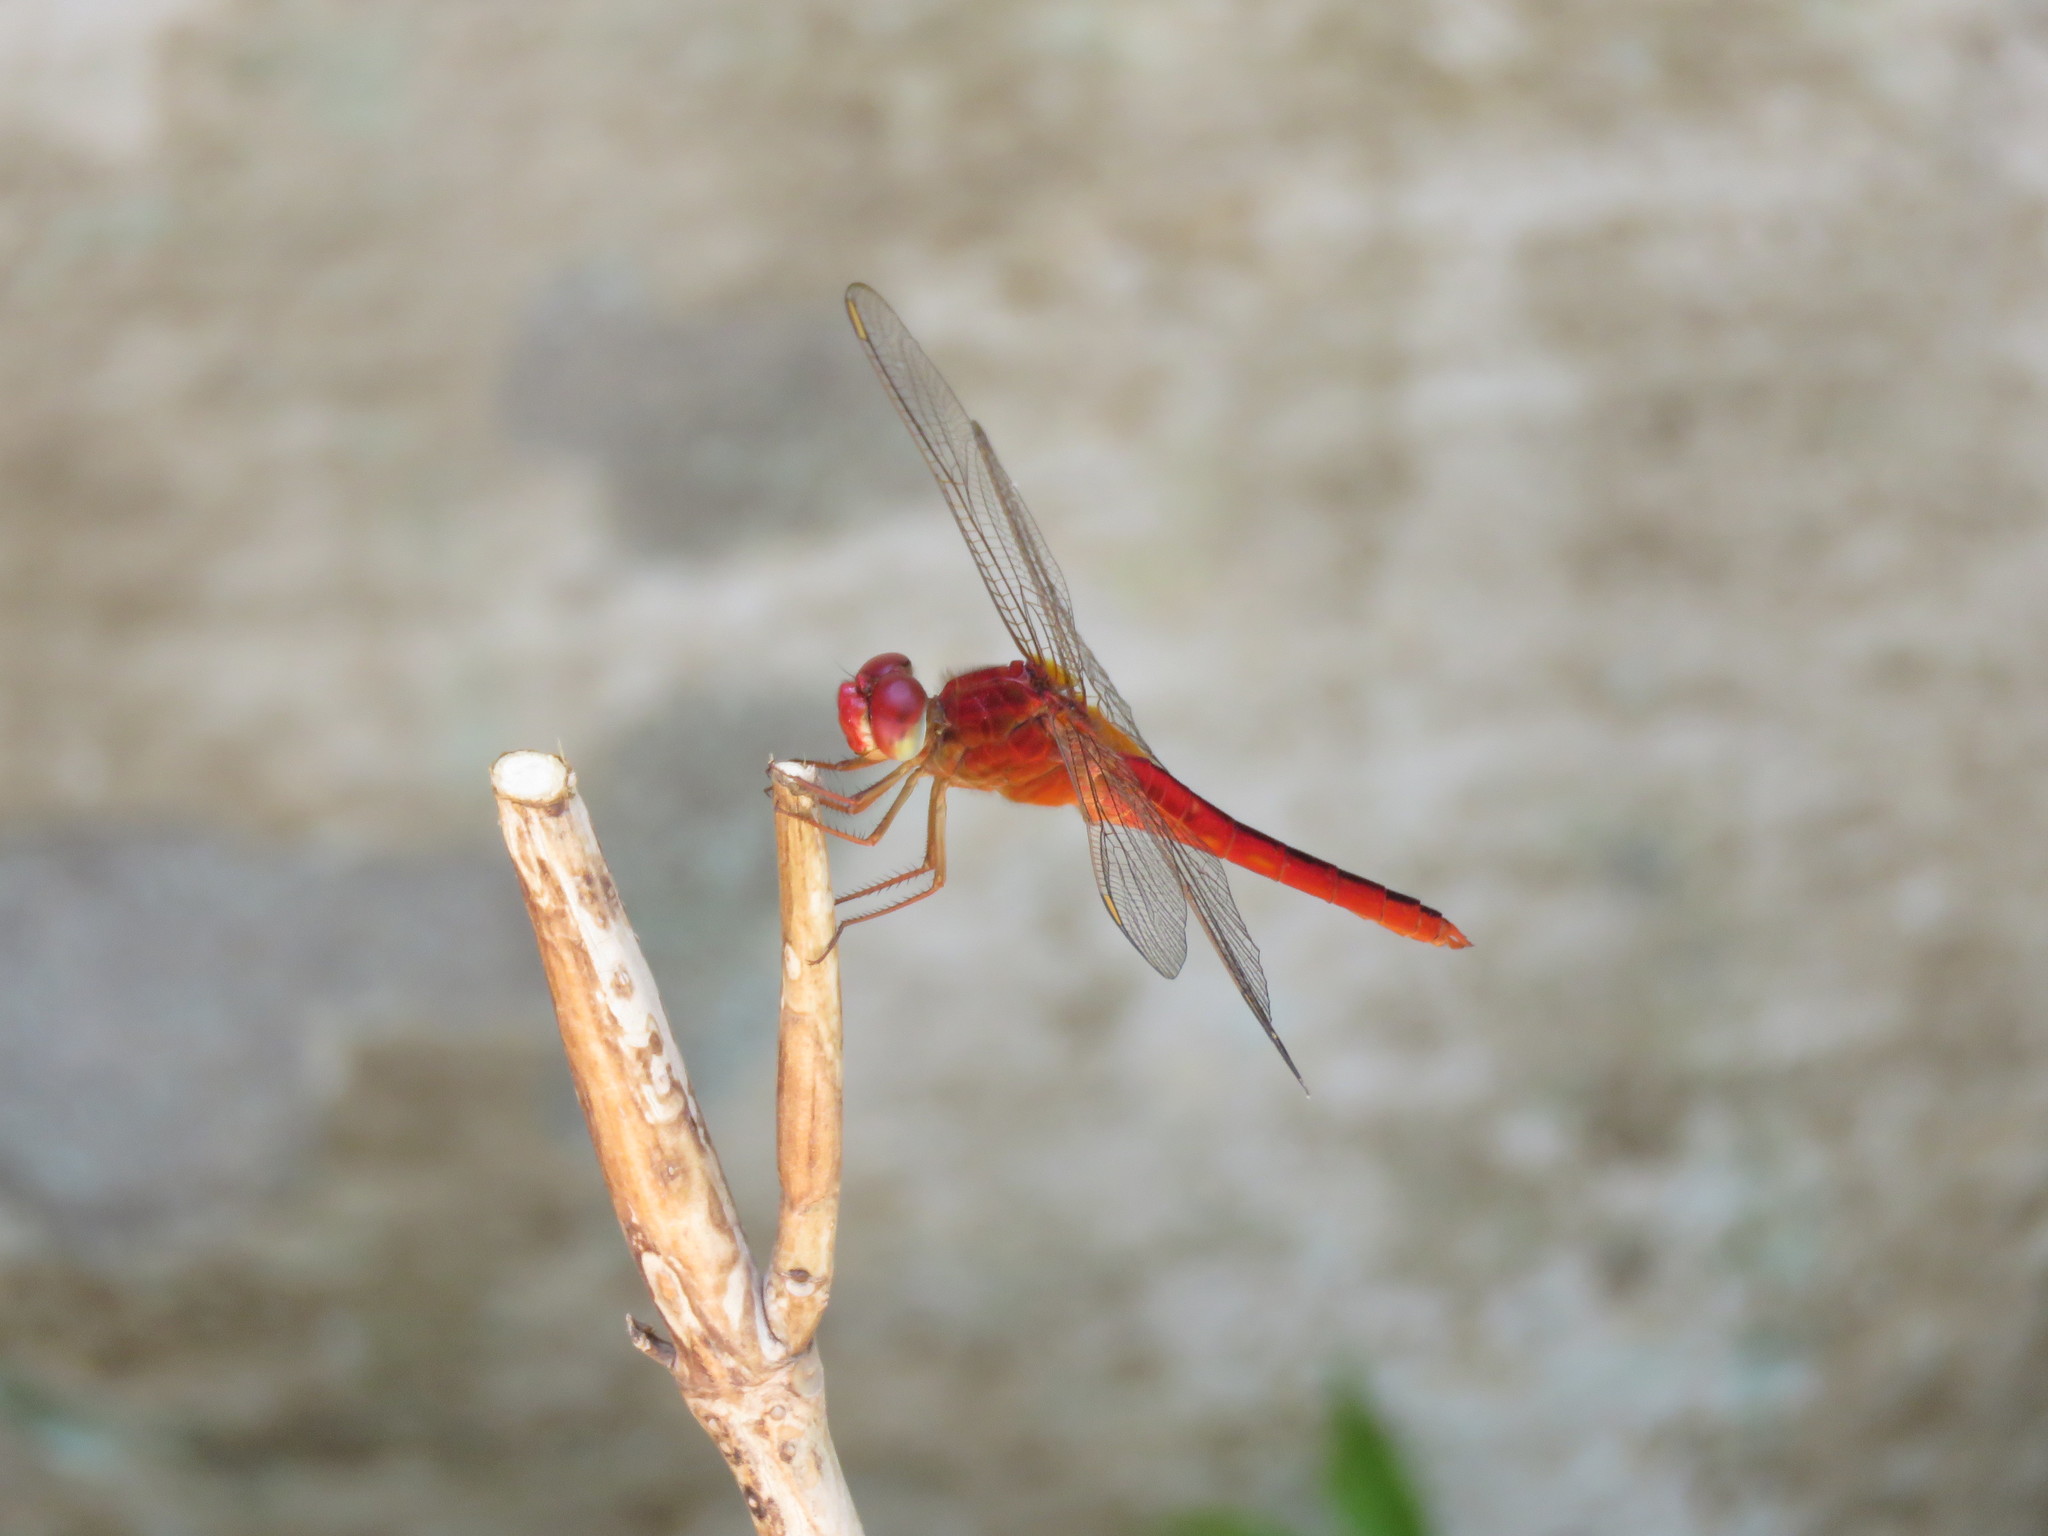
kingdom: Animalia
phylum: Arthropoda
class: Insecta
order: Odonata
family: Libellulidae
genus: Crocothemis
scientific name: Crocothemis servilia
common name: Scarlet skimmer
